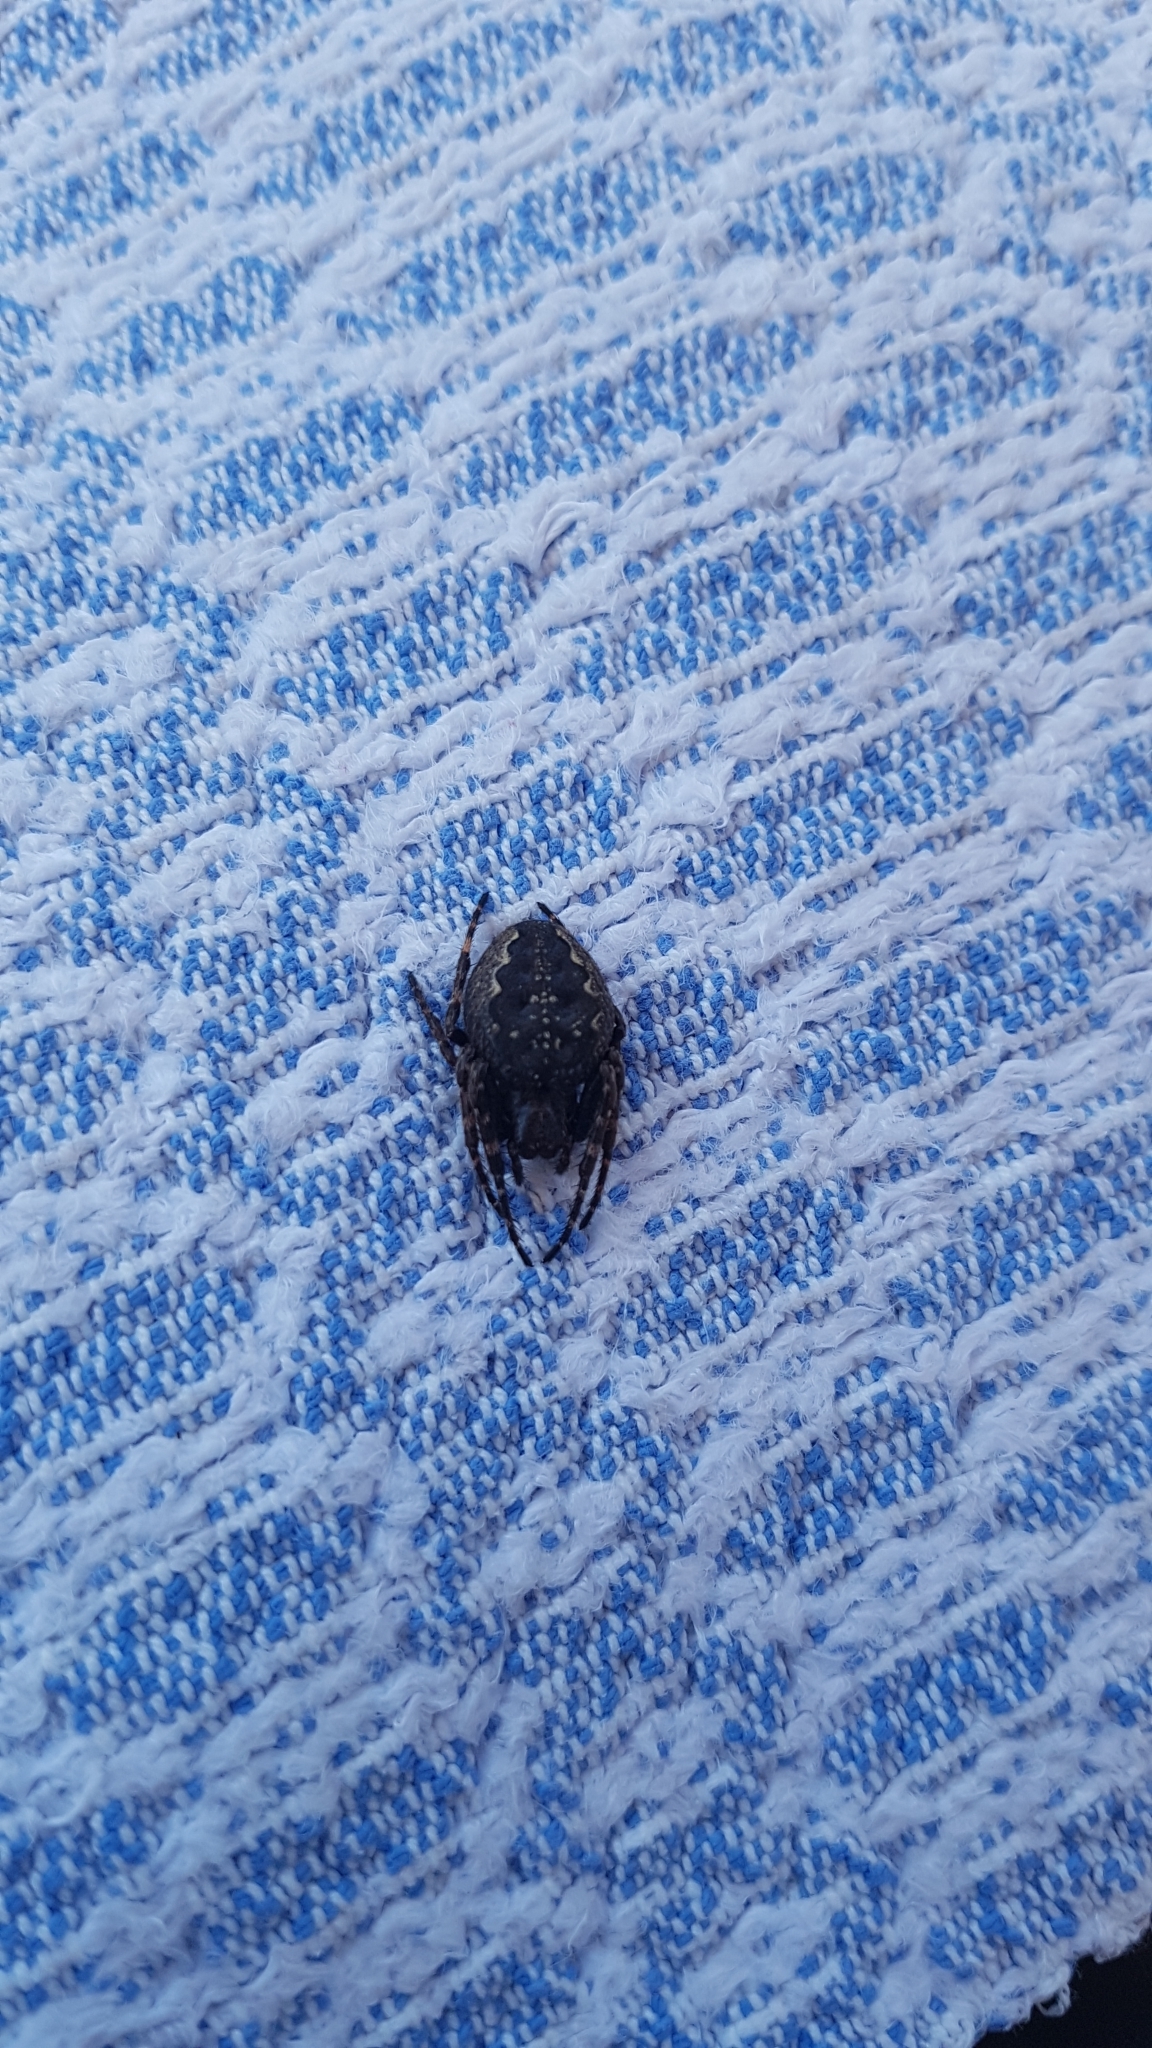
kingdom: Animalia
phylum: Arthropoda
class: Arachnida
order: Araneae
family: Araneidae
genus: Nuctenea
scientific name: Nuctenea umbratica
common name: Toad spider
